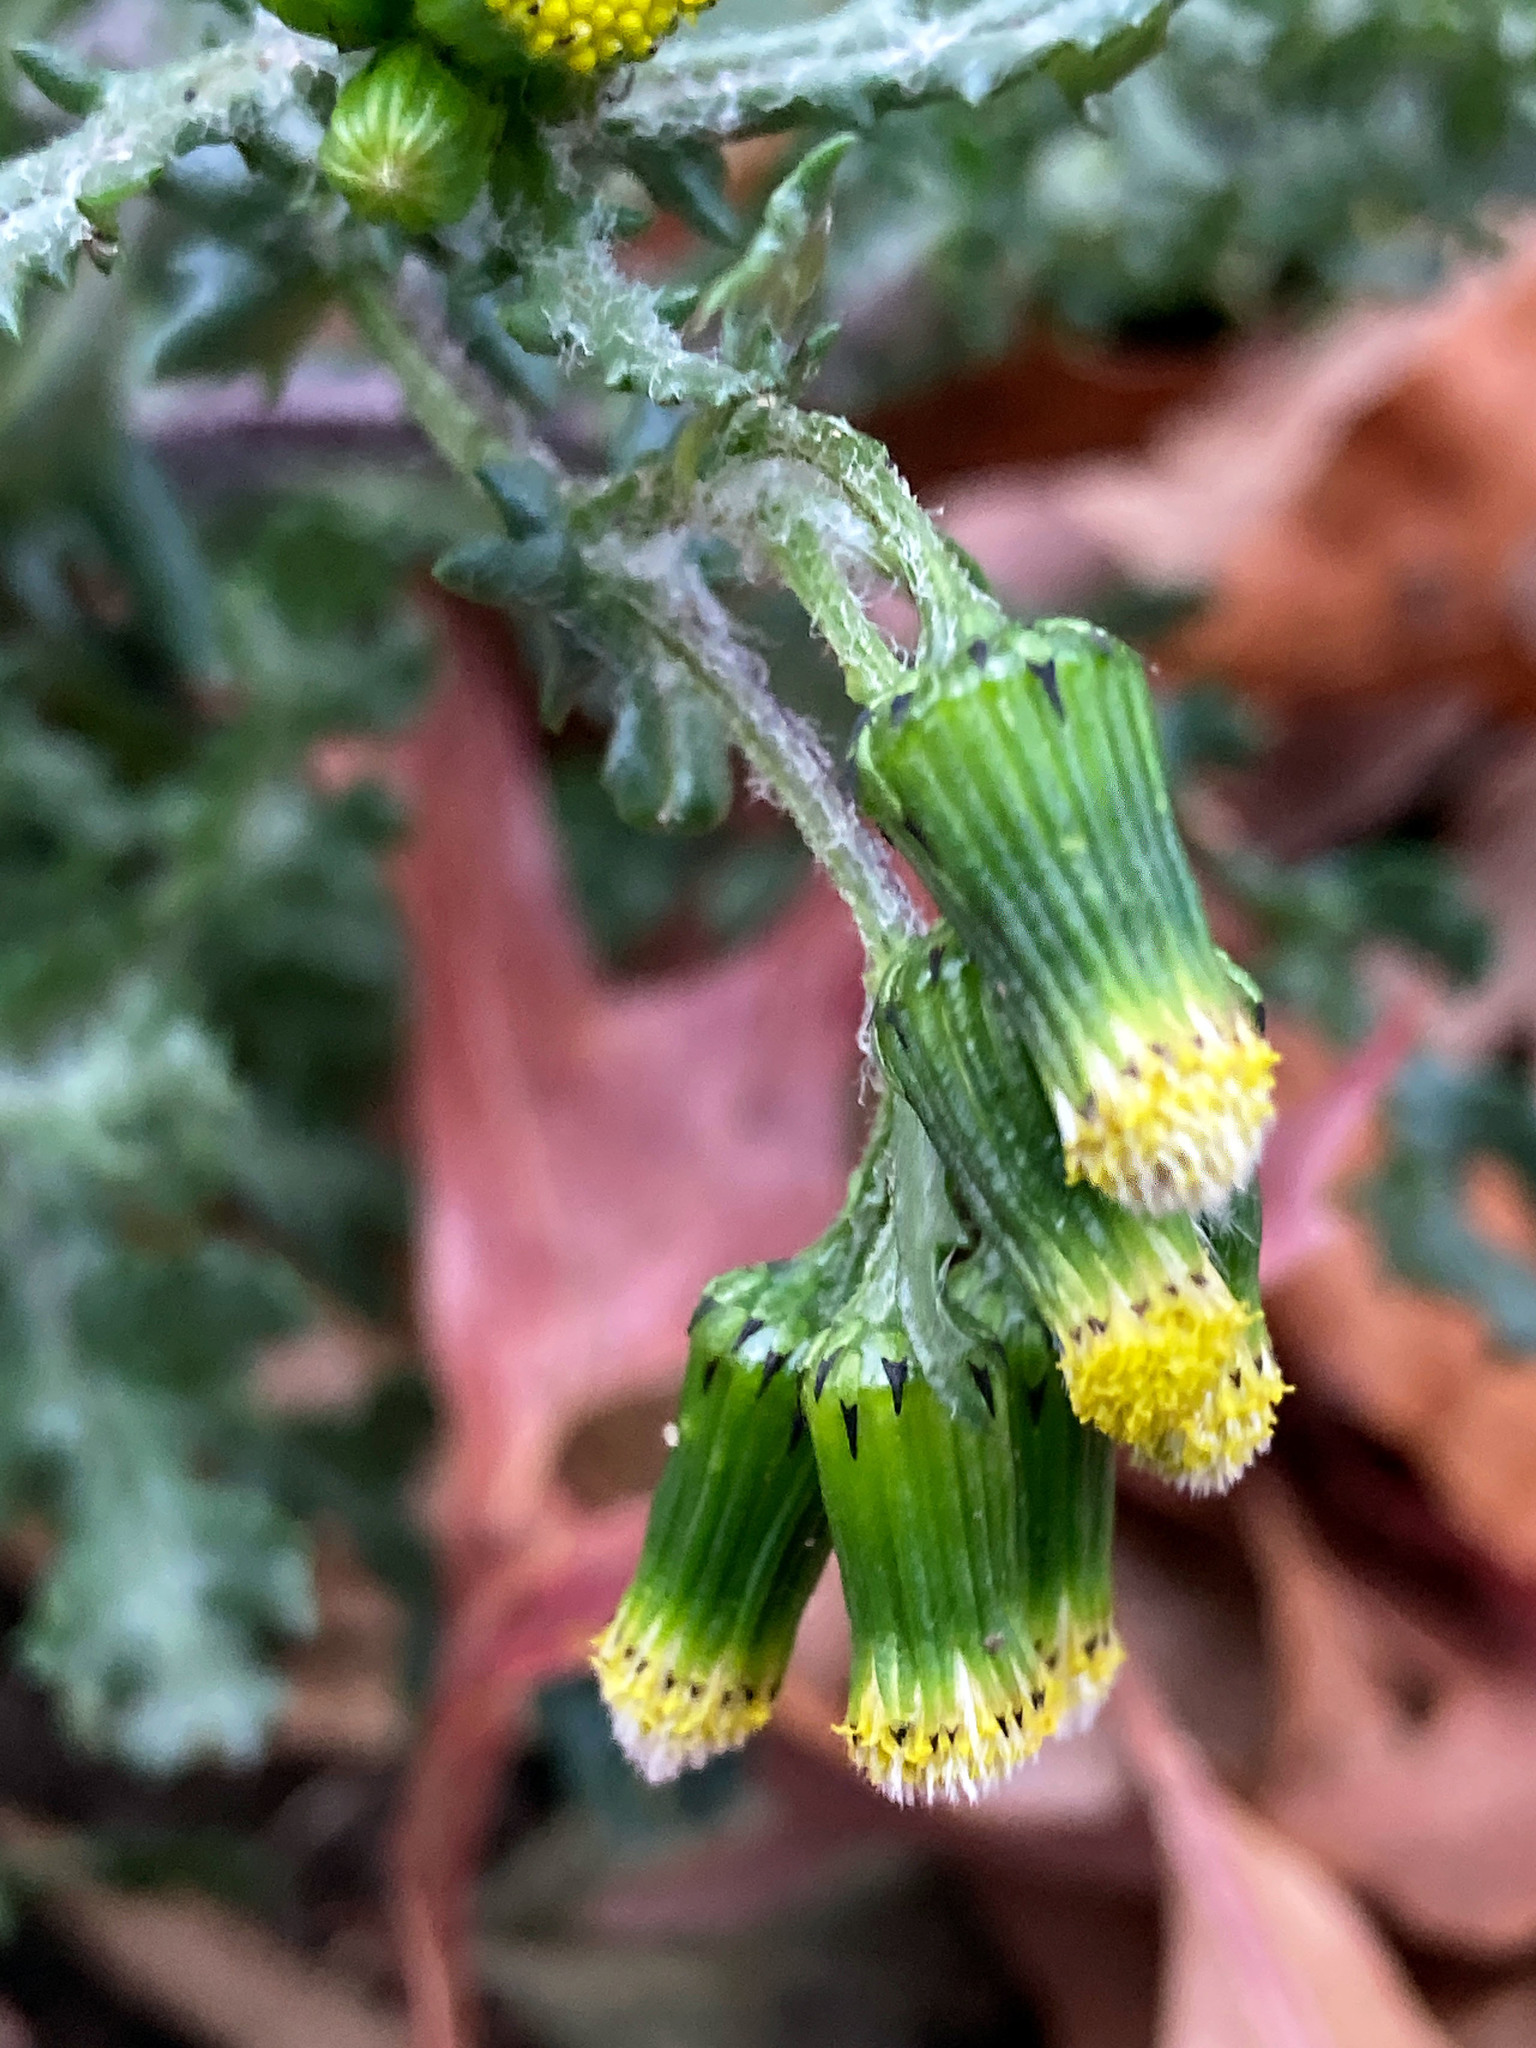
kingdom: Plantae
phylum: Tracheophyta
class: Magnoliopsida
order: Asterales
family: Asteraceae
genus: Senecio
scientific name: Senecio vulgaris
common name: Old-man-in-the-spring
